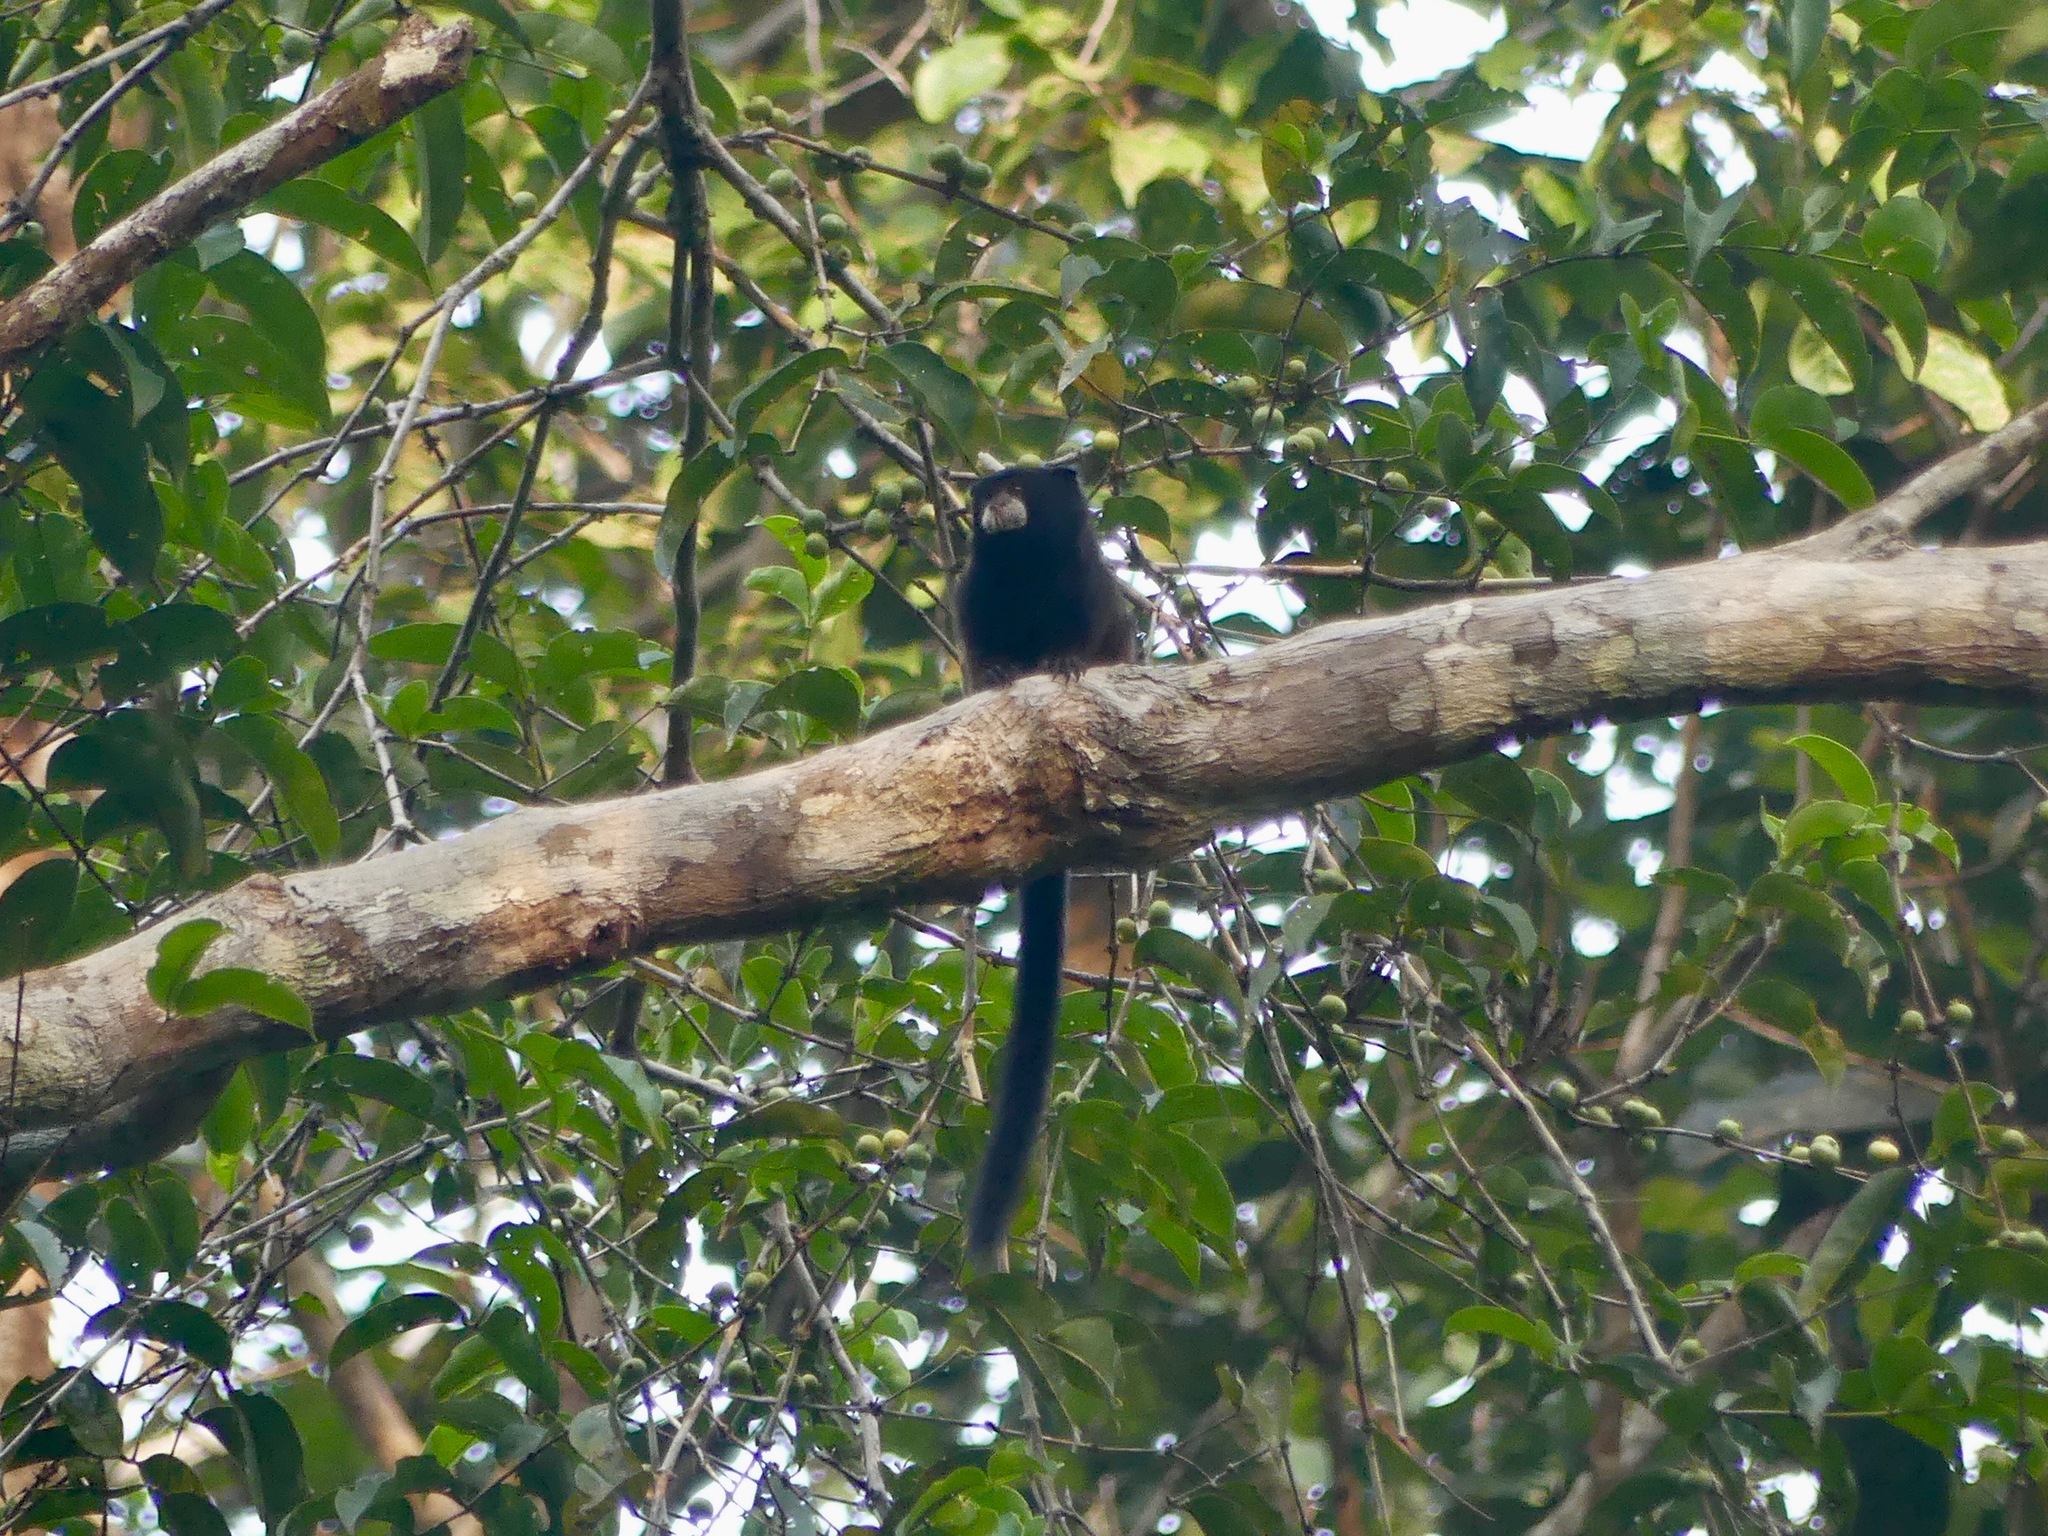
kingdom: Animalia
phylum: Chordata
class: Mammalia
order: Primates
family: Callitrichidae
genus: Leontocebus
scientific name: Leontocebus leucogenys
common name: Andean saddle-back tamarin
